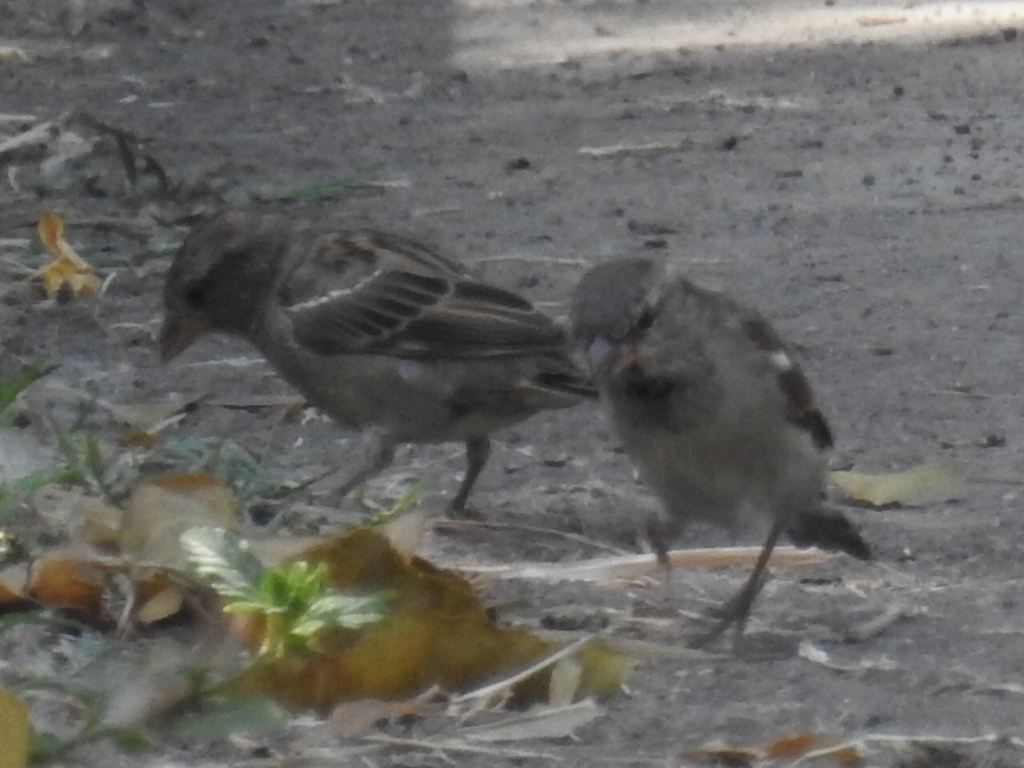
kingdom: Animalia
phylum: Chordata
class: Aves
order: Passeriformes
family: Passeridae
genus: Passer
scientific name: Passer domesticus
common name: House sparrow
